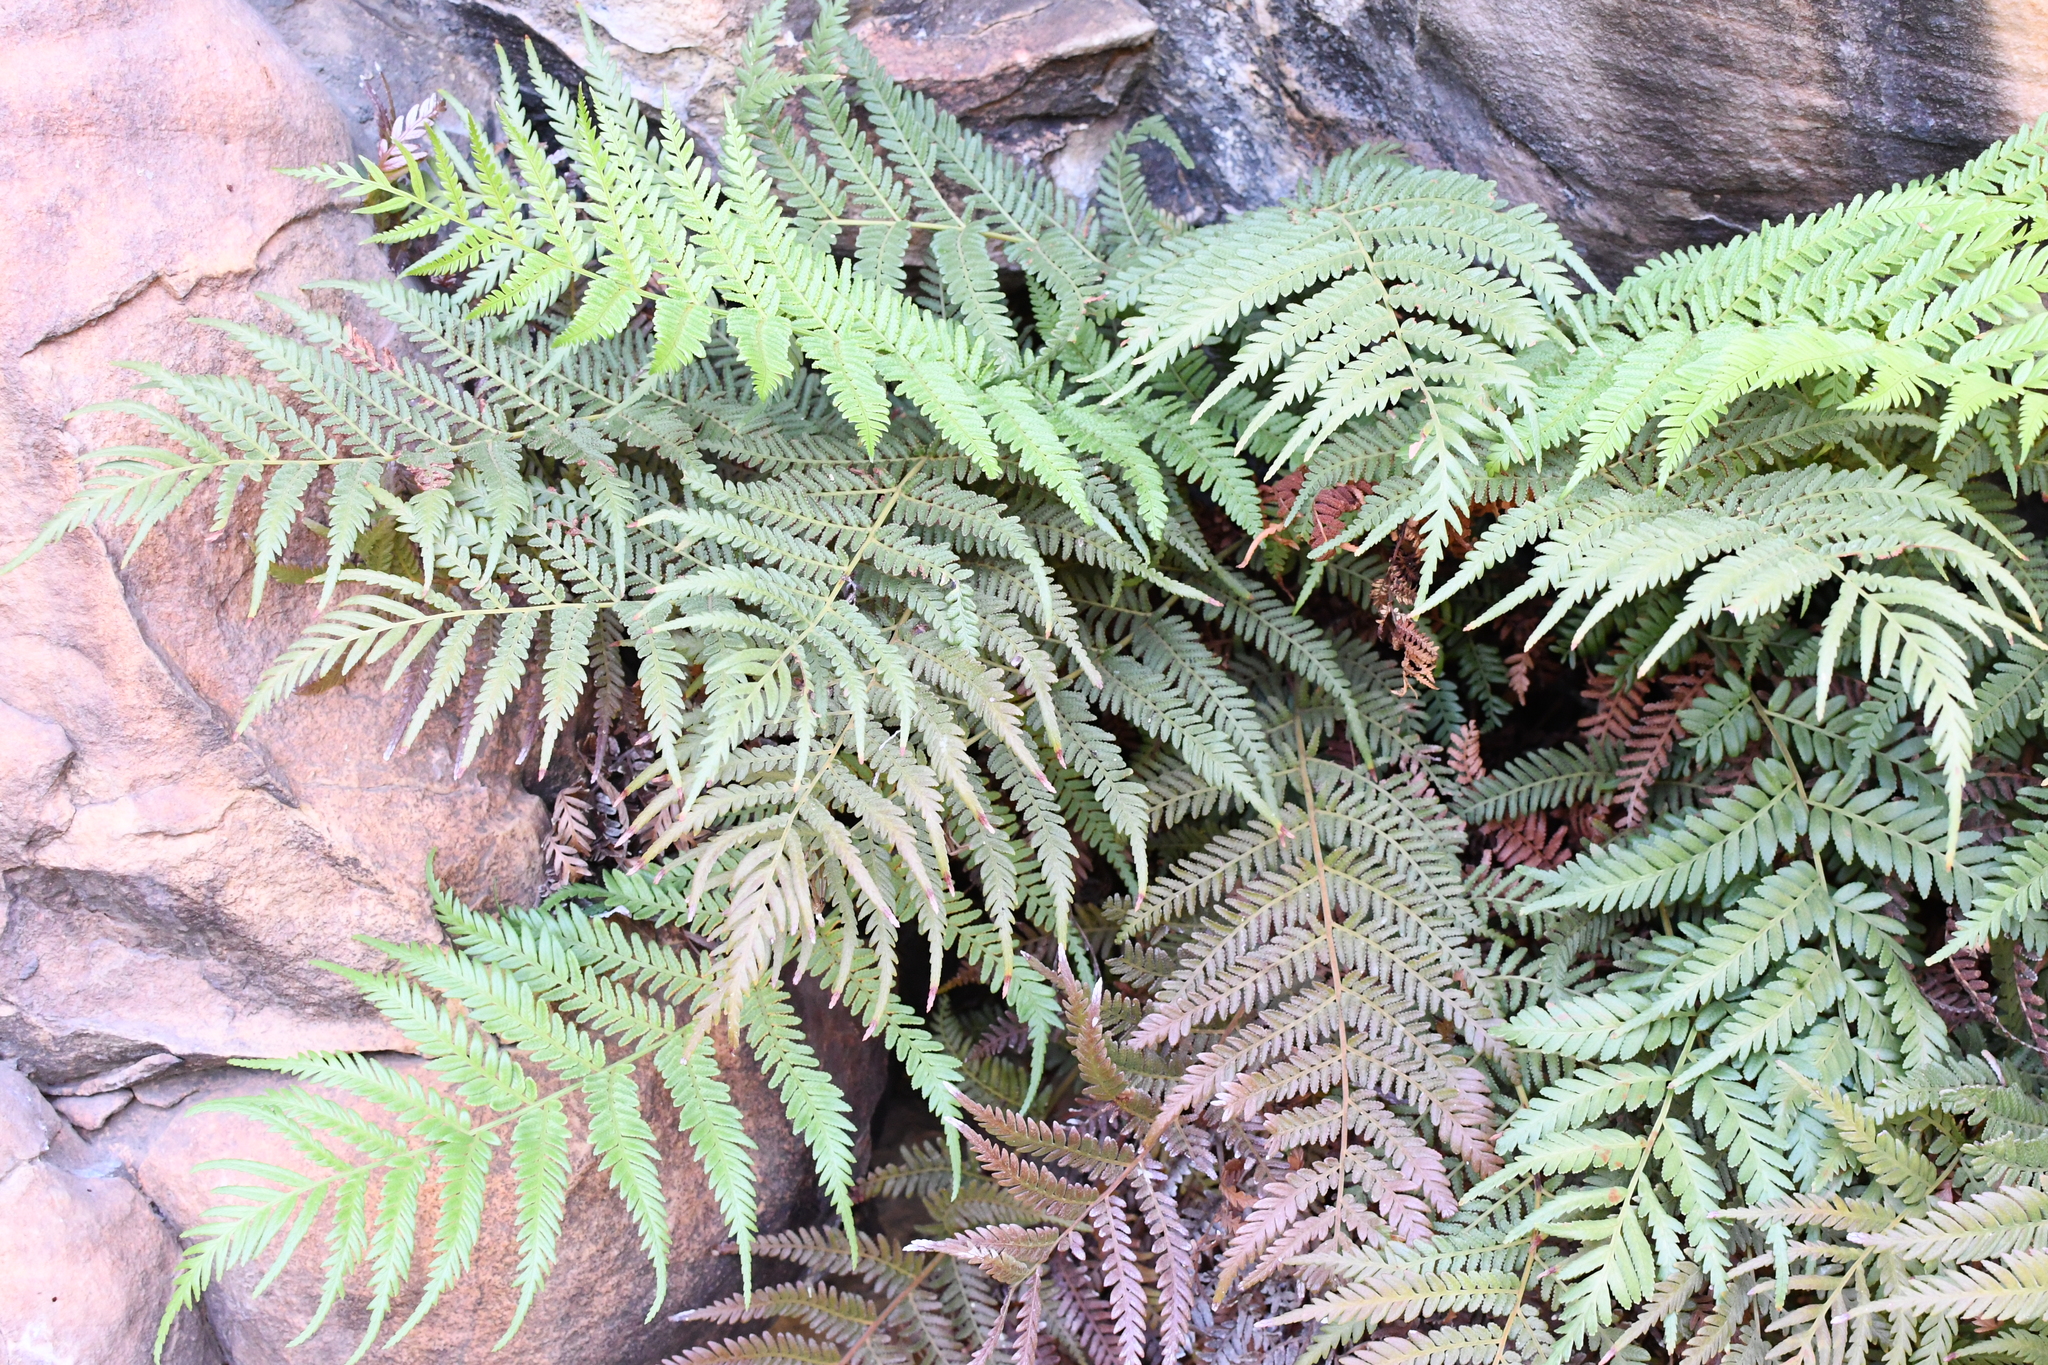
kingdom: Plantae
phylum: Tracheophyta
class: Polypodiopsida
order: Osmundales
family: Osmundaceae
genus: Todea
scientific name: Todea barbara
